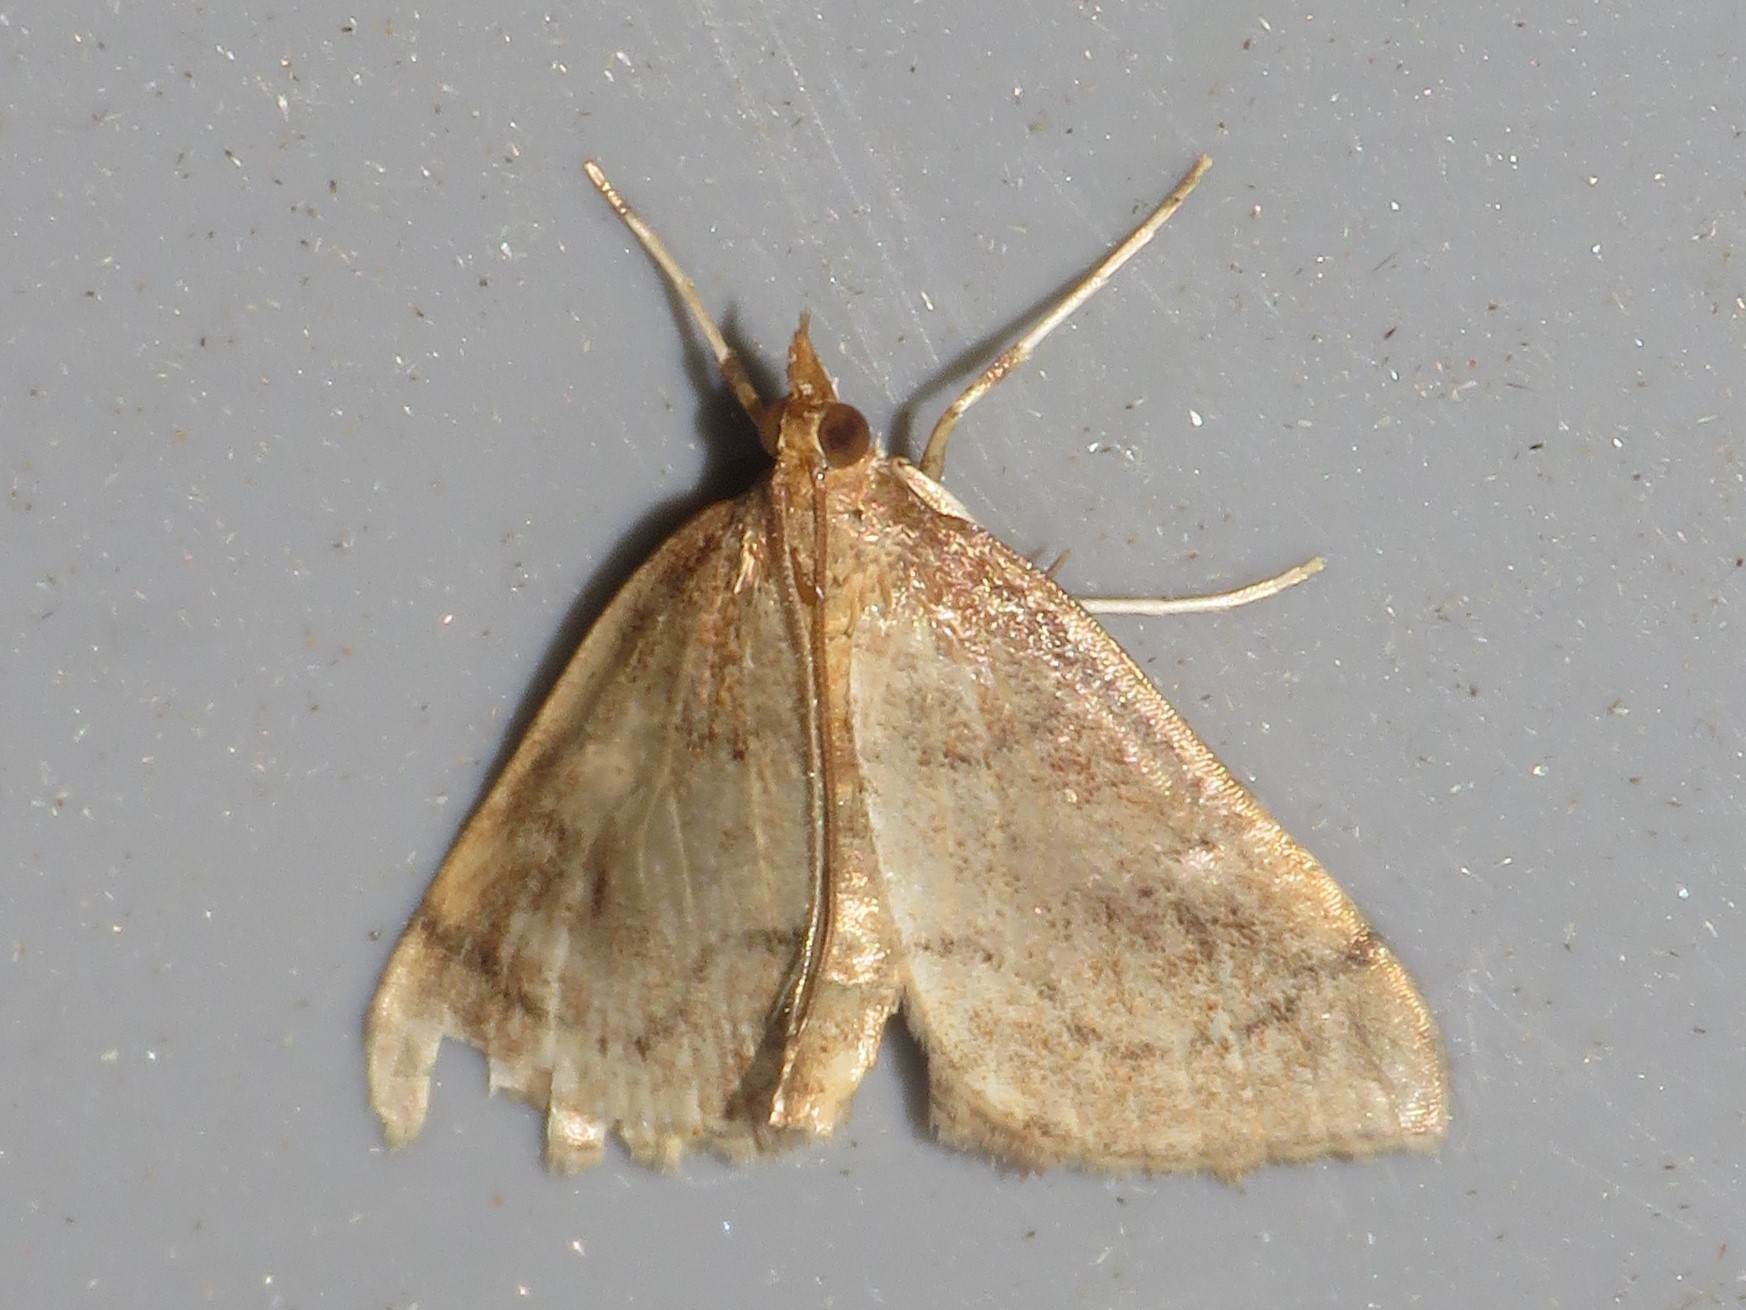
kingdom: Animalia
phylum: Arthropoda
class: Insecta
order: Lepidoptera
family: Crambidae
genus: Fumibotys
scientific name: Fumibotys fumalis
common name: Mint root borer moth
